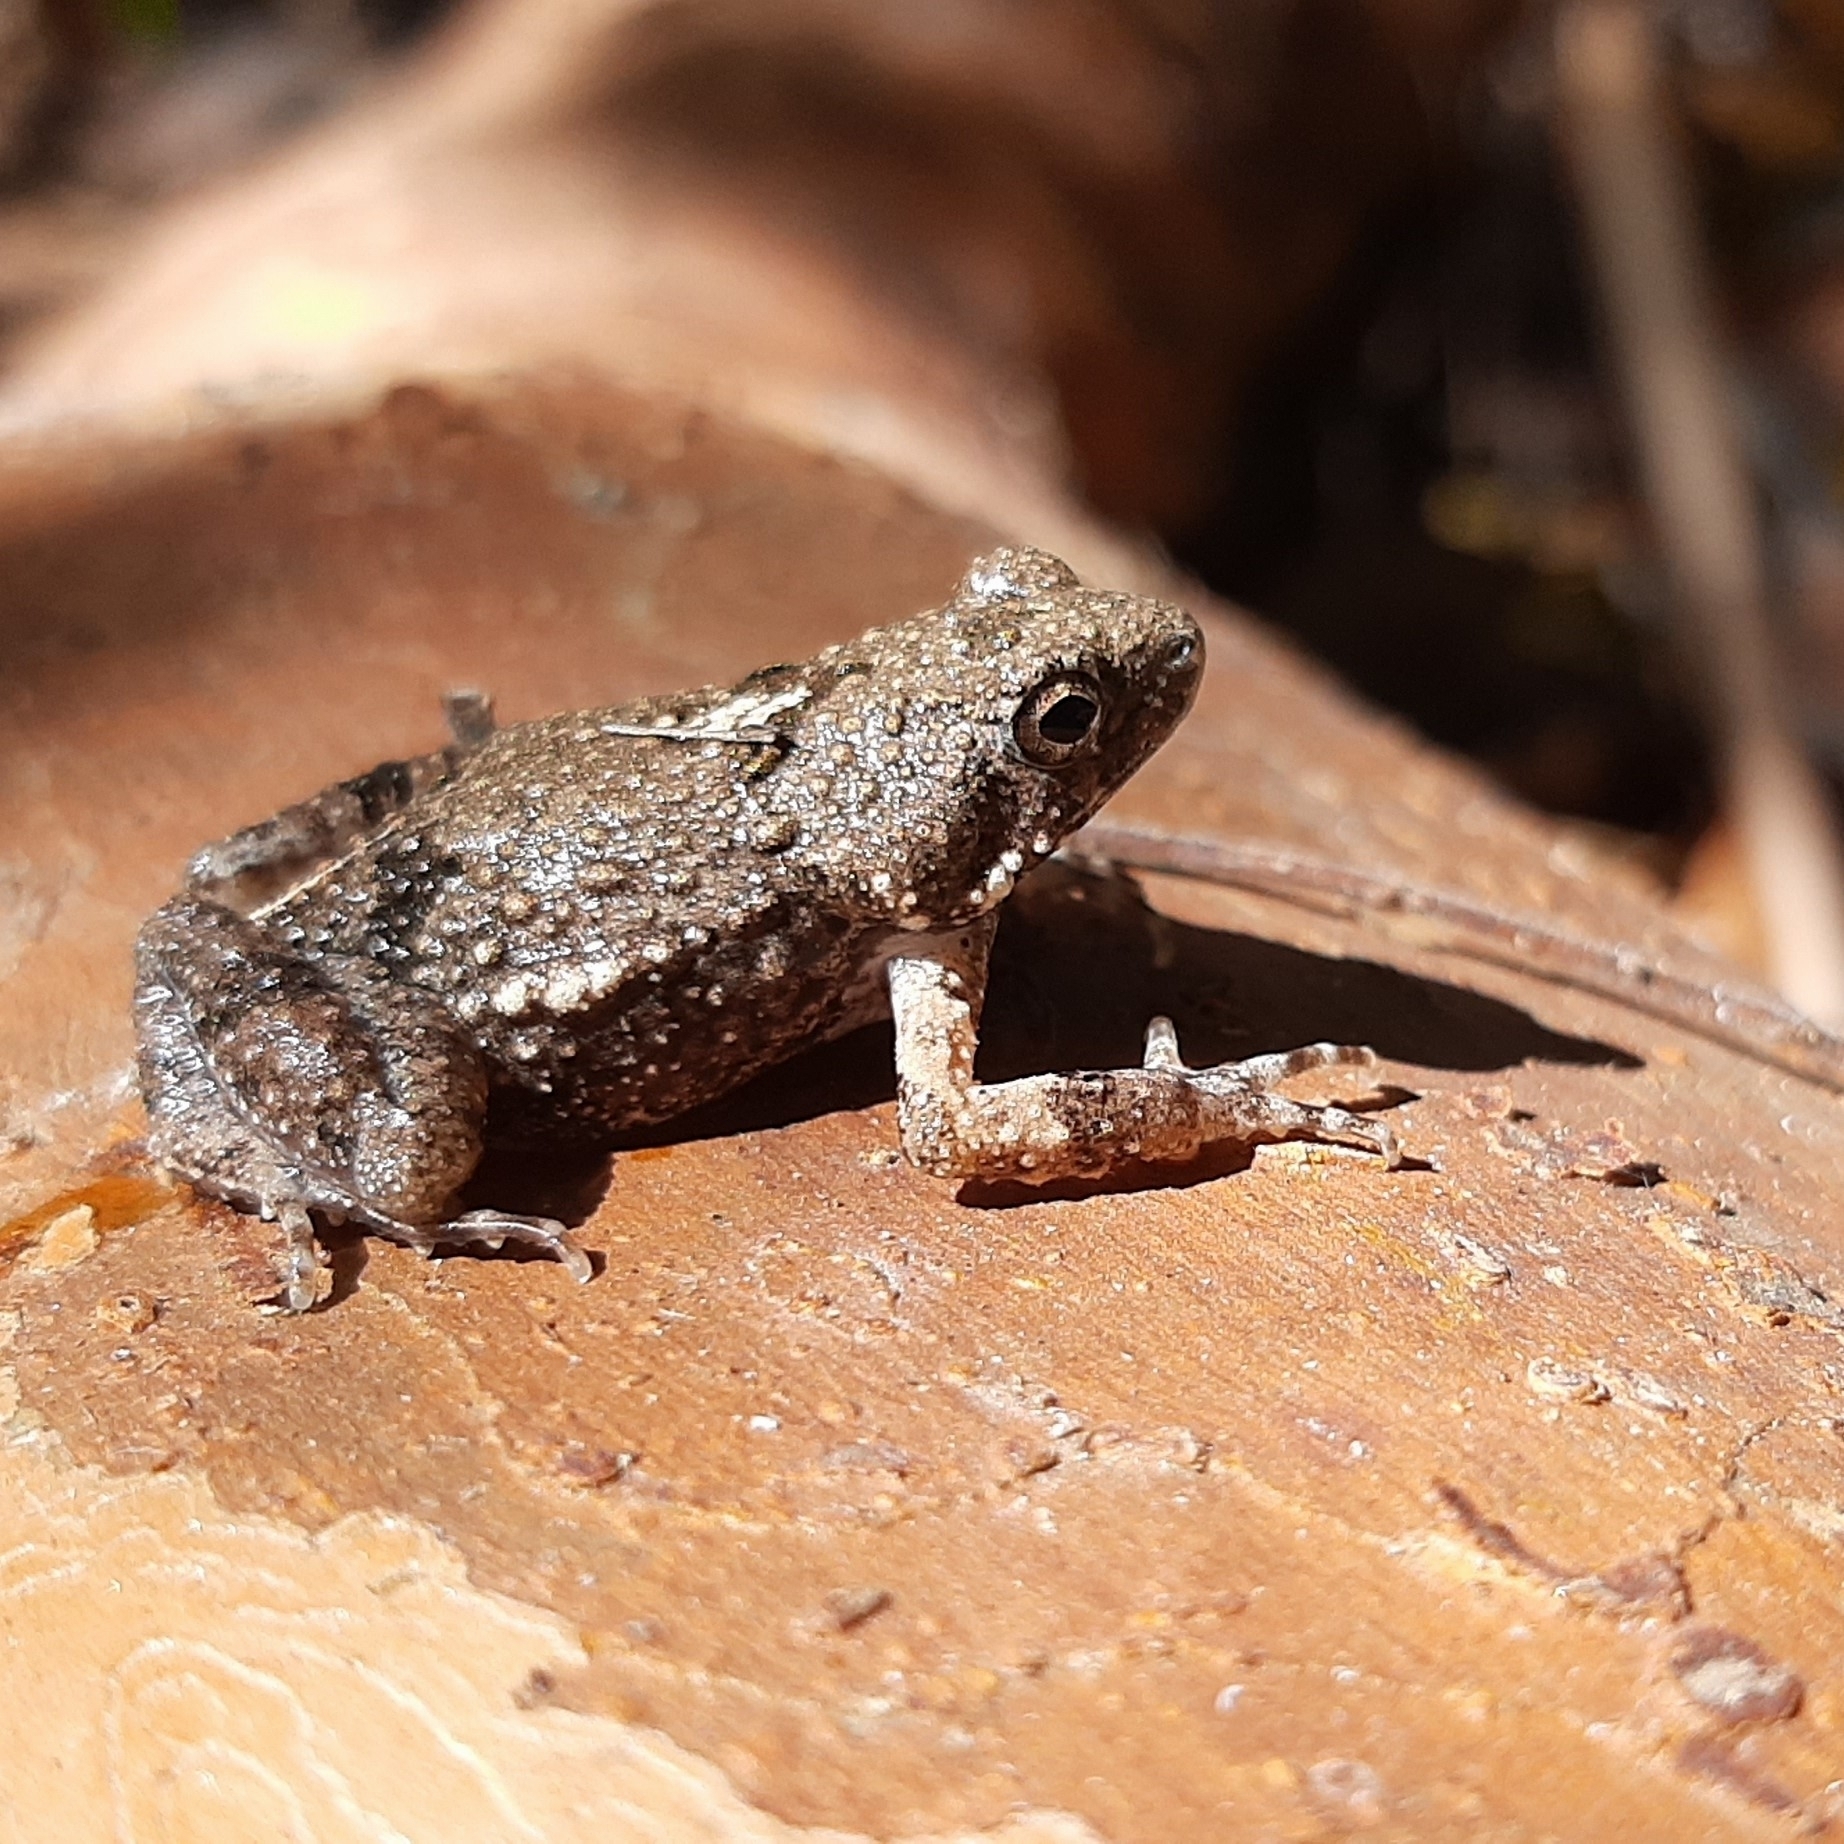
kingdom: Animalia
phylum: Chordata
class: Amphibia
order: Anura
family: Leptodactylidae
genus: Engystomops
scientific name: Engystomops pustulosus
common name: Tungara frog
